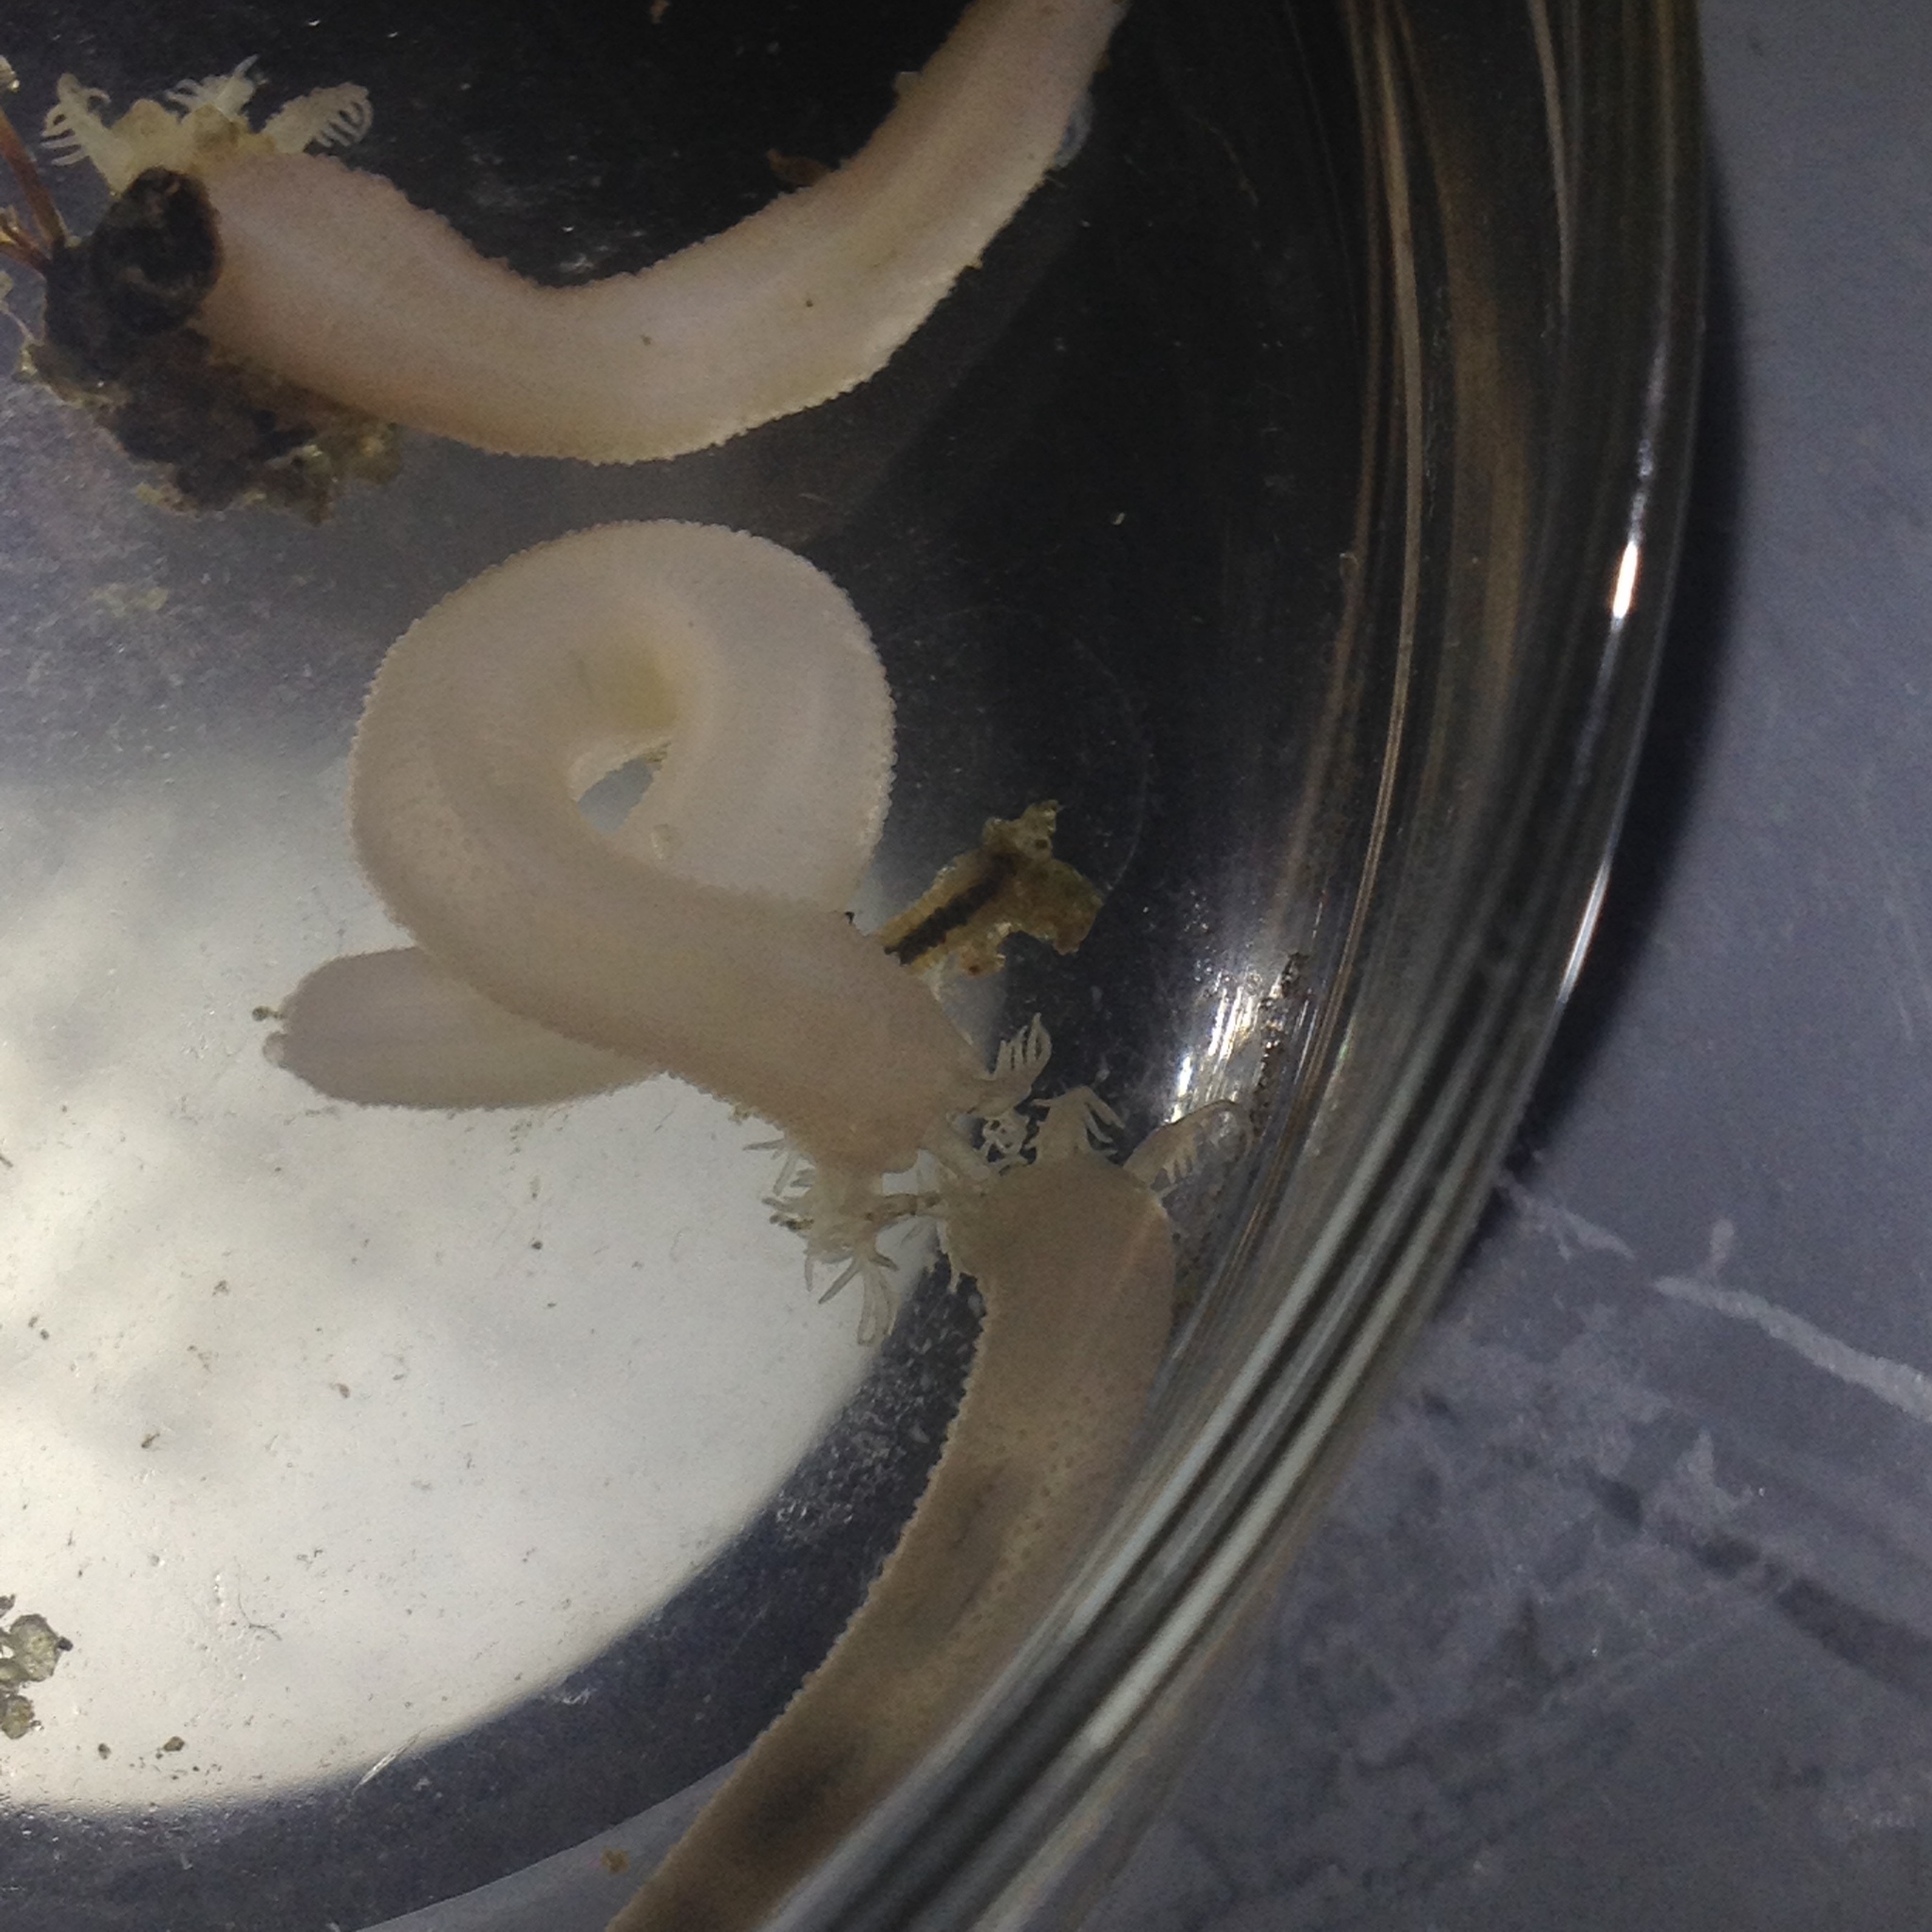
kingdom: Animalia
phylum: Echinodermata
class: Holothuroidea
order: Apodida
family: Synaptidae
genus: Leptosynapta
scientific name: Leptosynapta tenuis
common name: Slender footless sea cucumber
